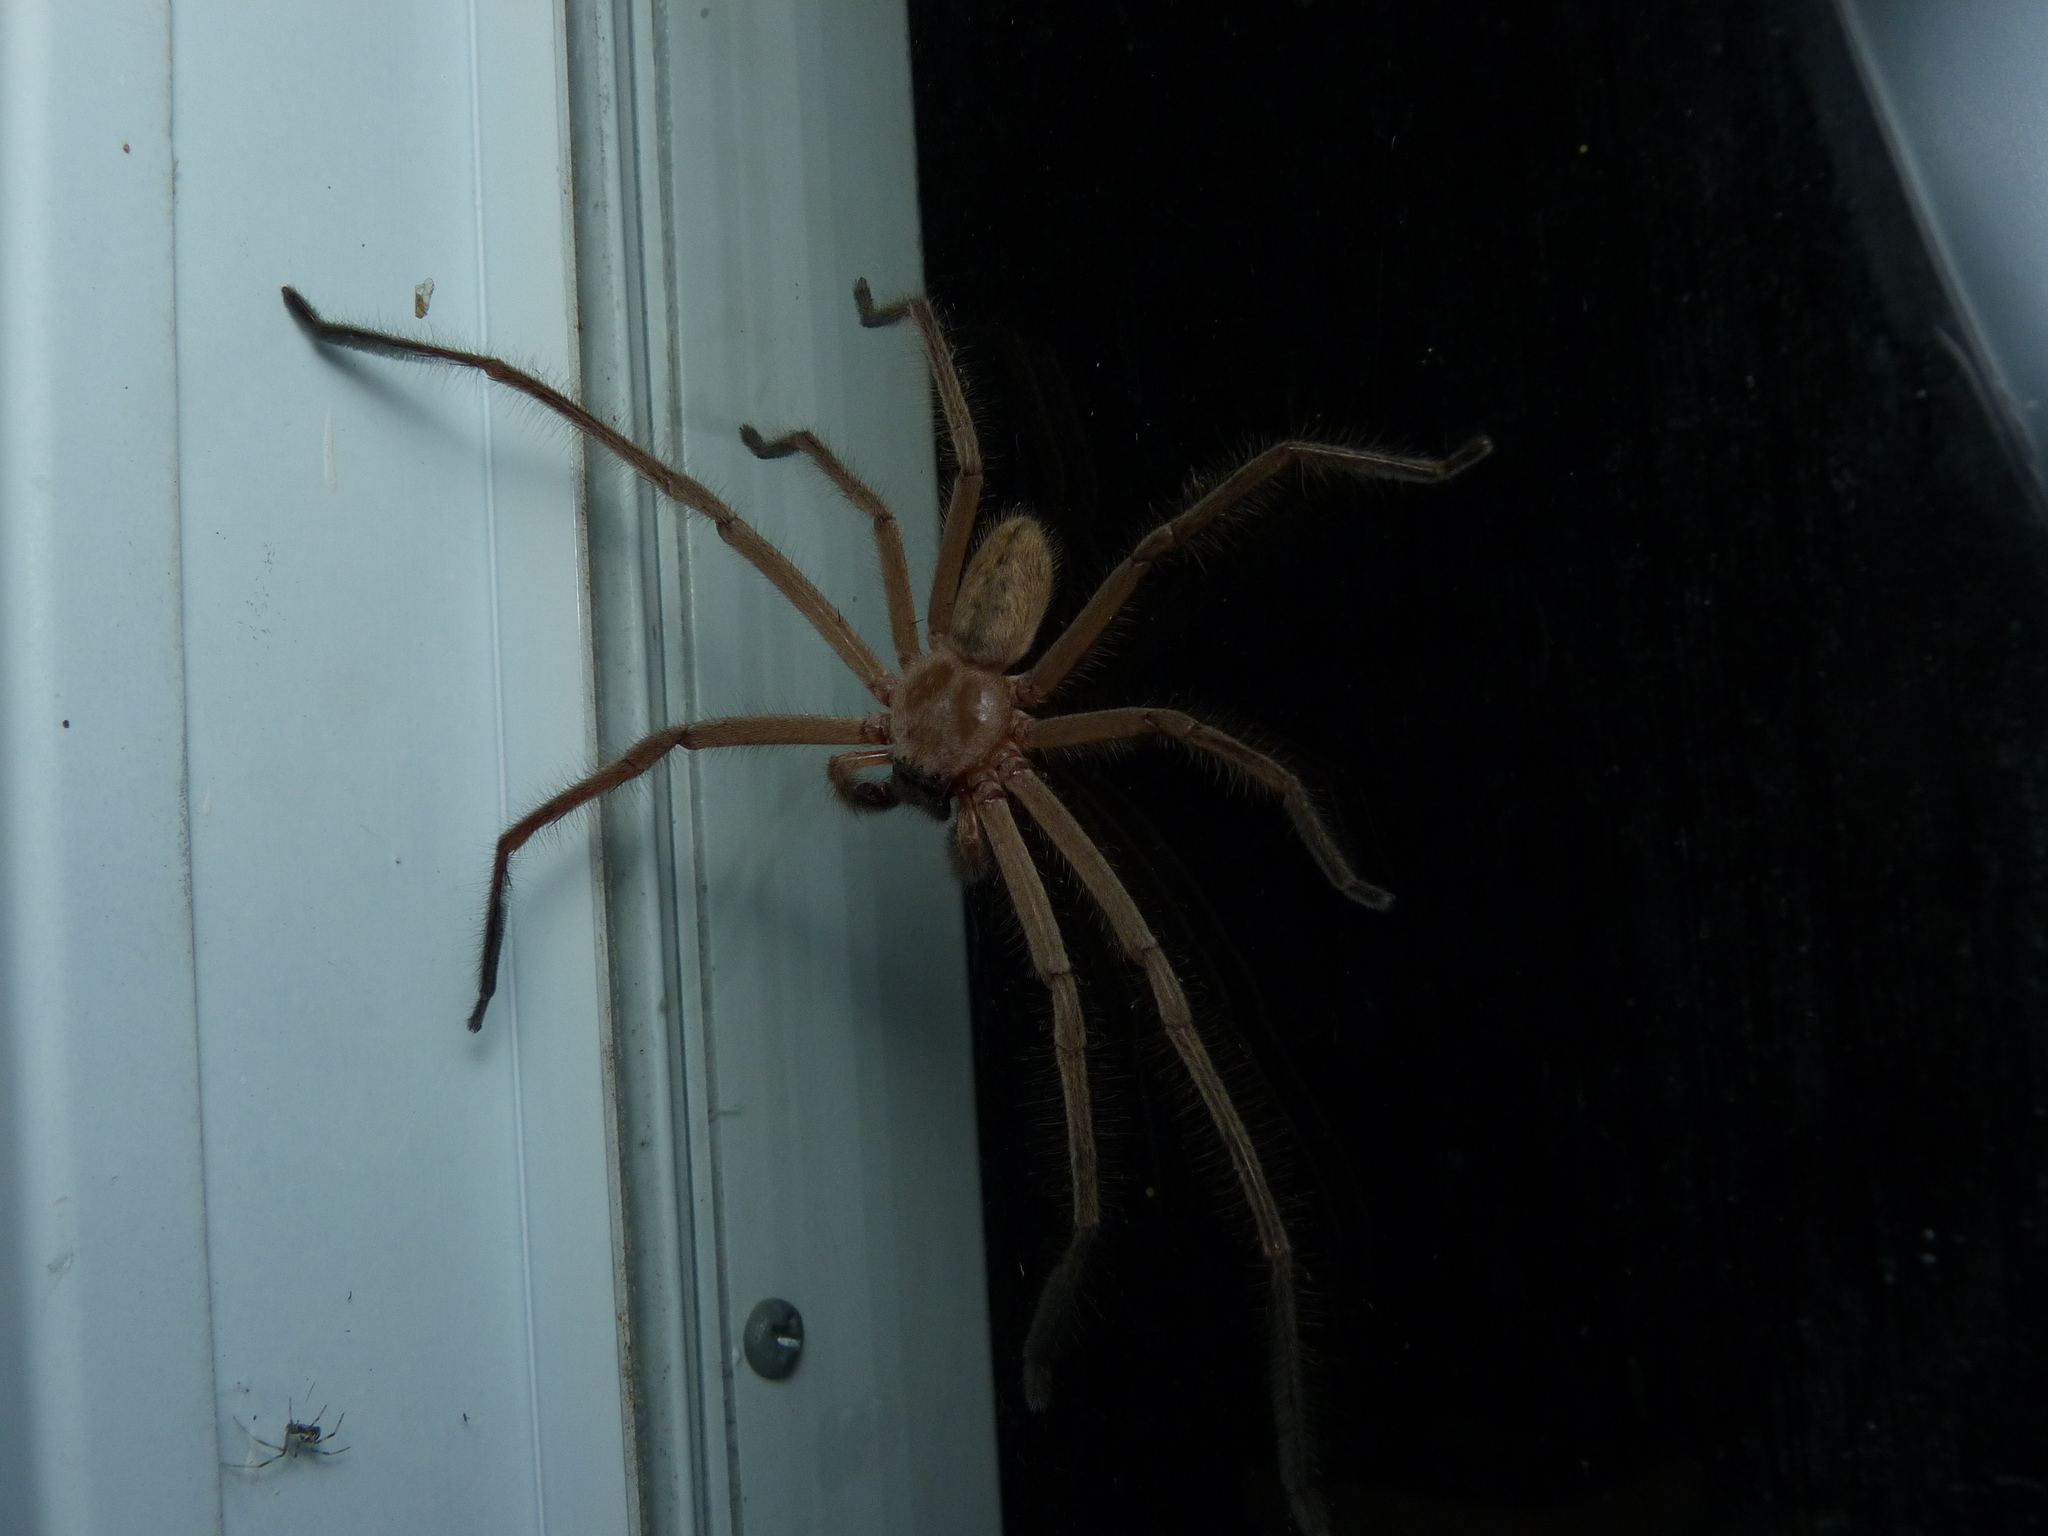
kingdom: Animalia
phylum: Arthropoda
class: Arachnida
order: Araneae
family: Sparassidae
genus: Delena
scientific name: Delena cancerides
